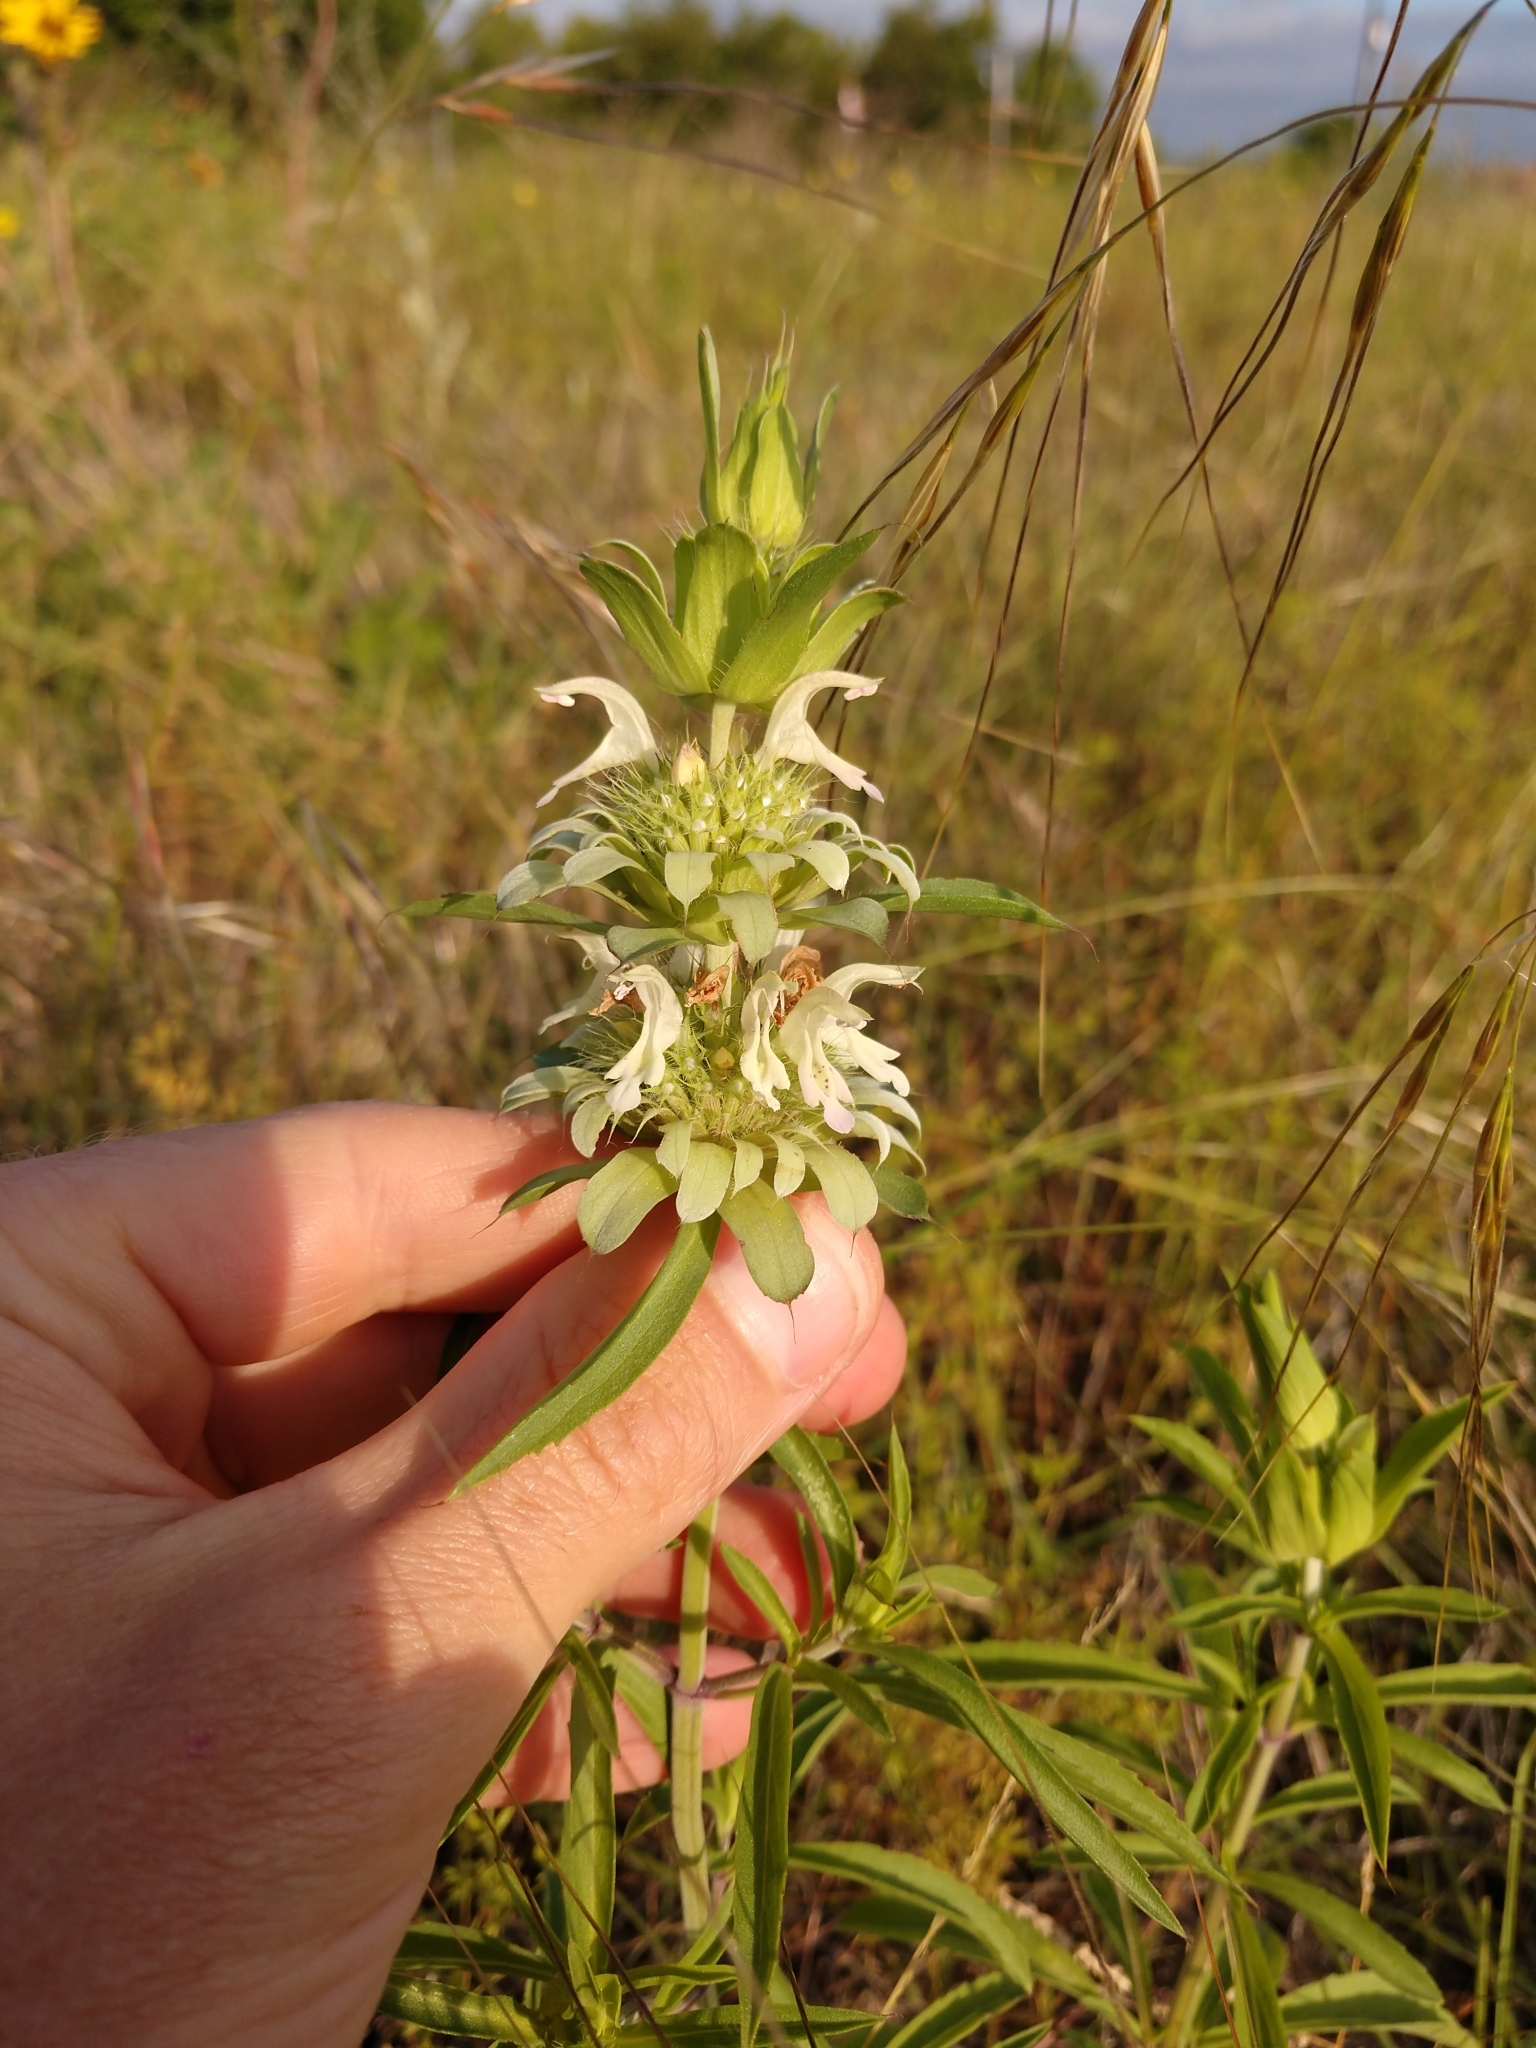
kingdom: Plantae
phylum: Tracheophyta
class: Magnoliopsida
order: Lamiales
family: Lamiaceae
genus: Monarda
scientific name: Monarda punctata
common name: Dotted monarda
